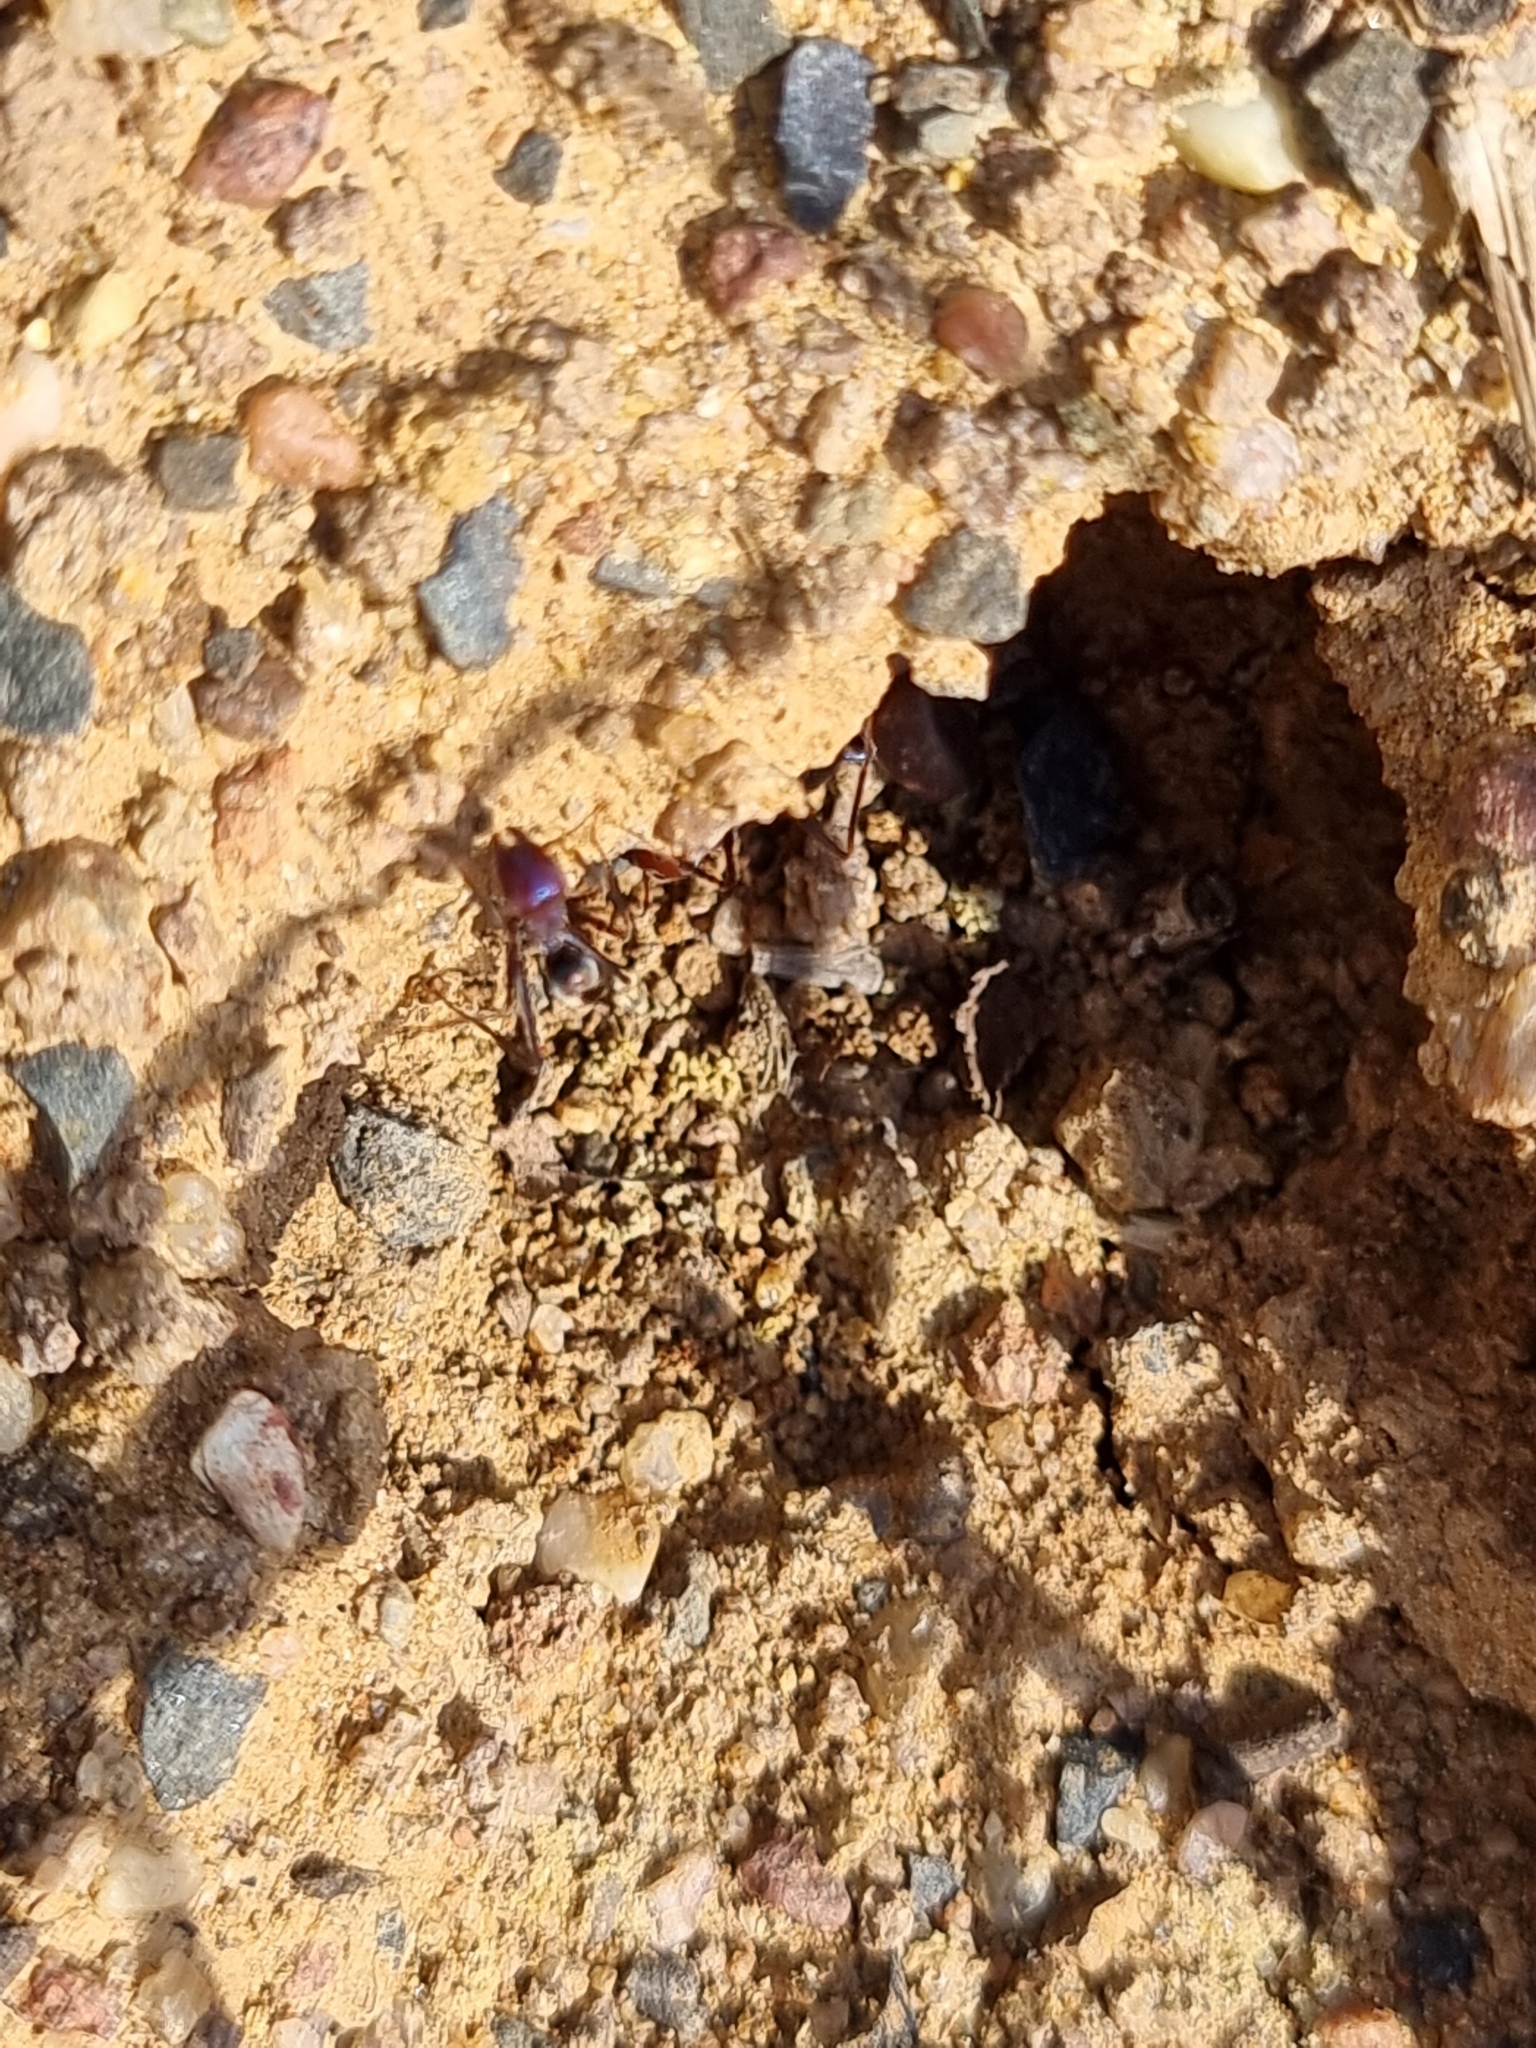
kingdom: Animalia
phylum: Arthropoda
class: Insecta
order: Hymenoptera
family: Formicidae
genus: Iridomyrmex
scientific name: Iridomyrmex purpureus
